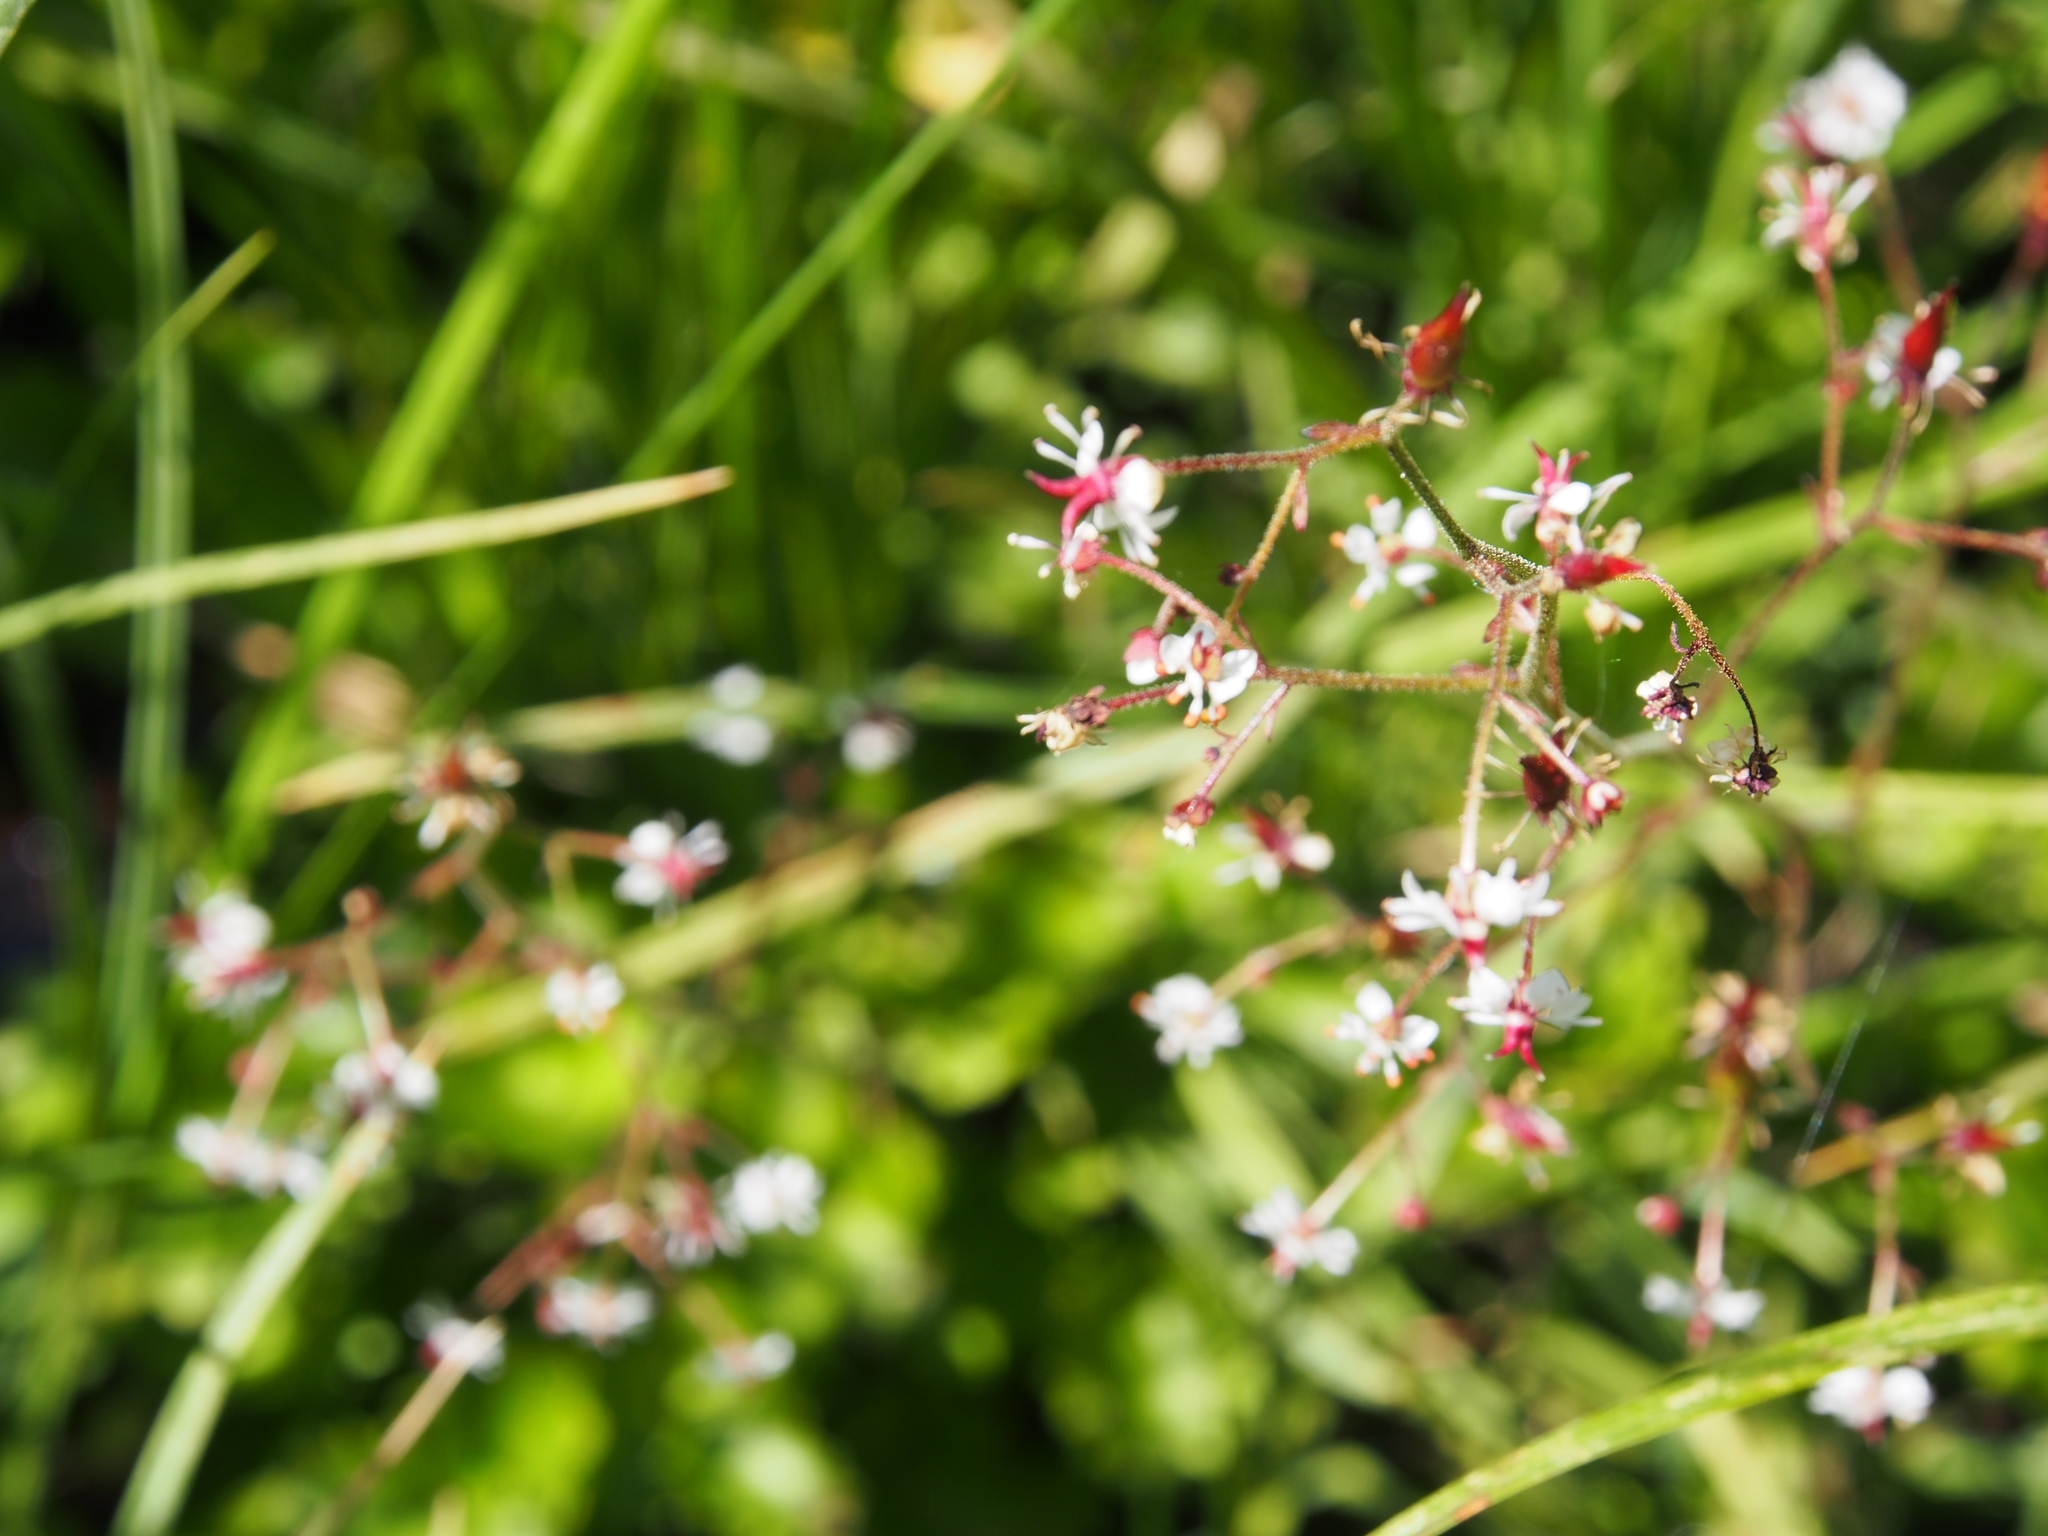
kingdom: Plantae
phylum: Tracheophyta
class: Magnoliopsida
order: Saxifragales
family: Saxifragaceae
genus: Micranthes
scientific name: Micranthes odontoloma
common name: Brook saxifrage
